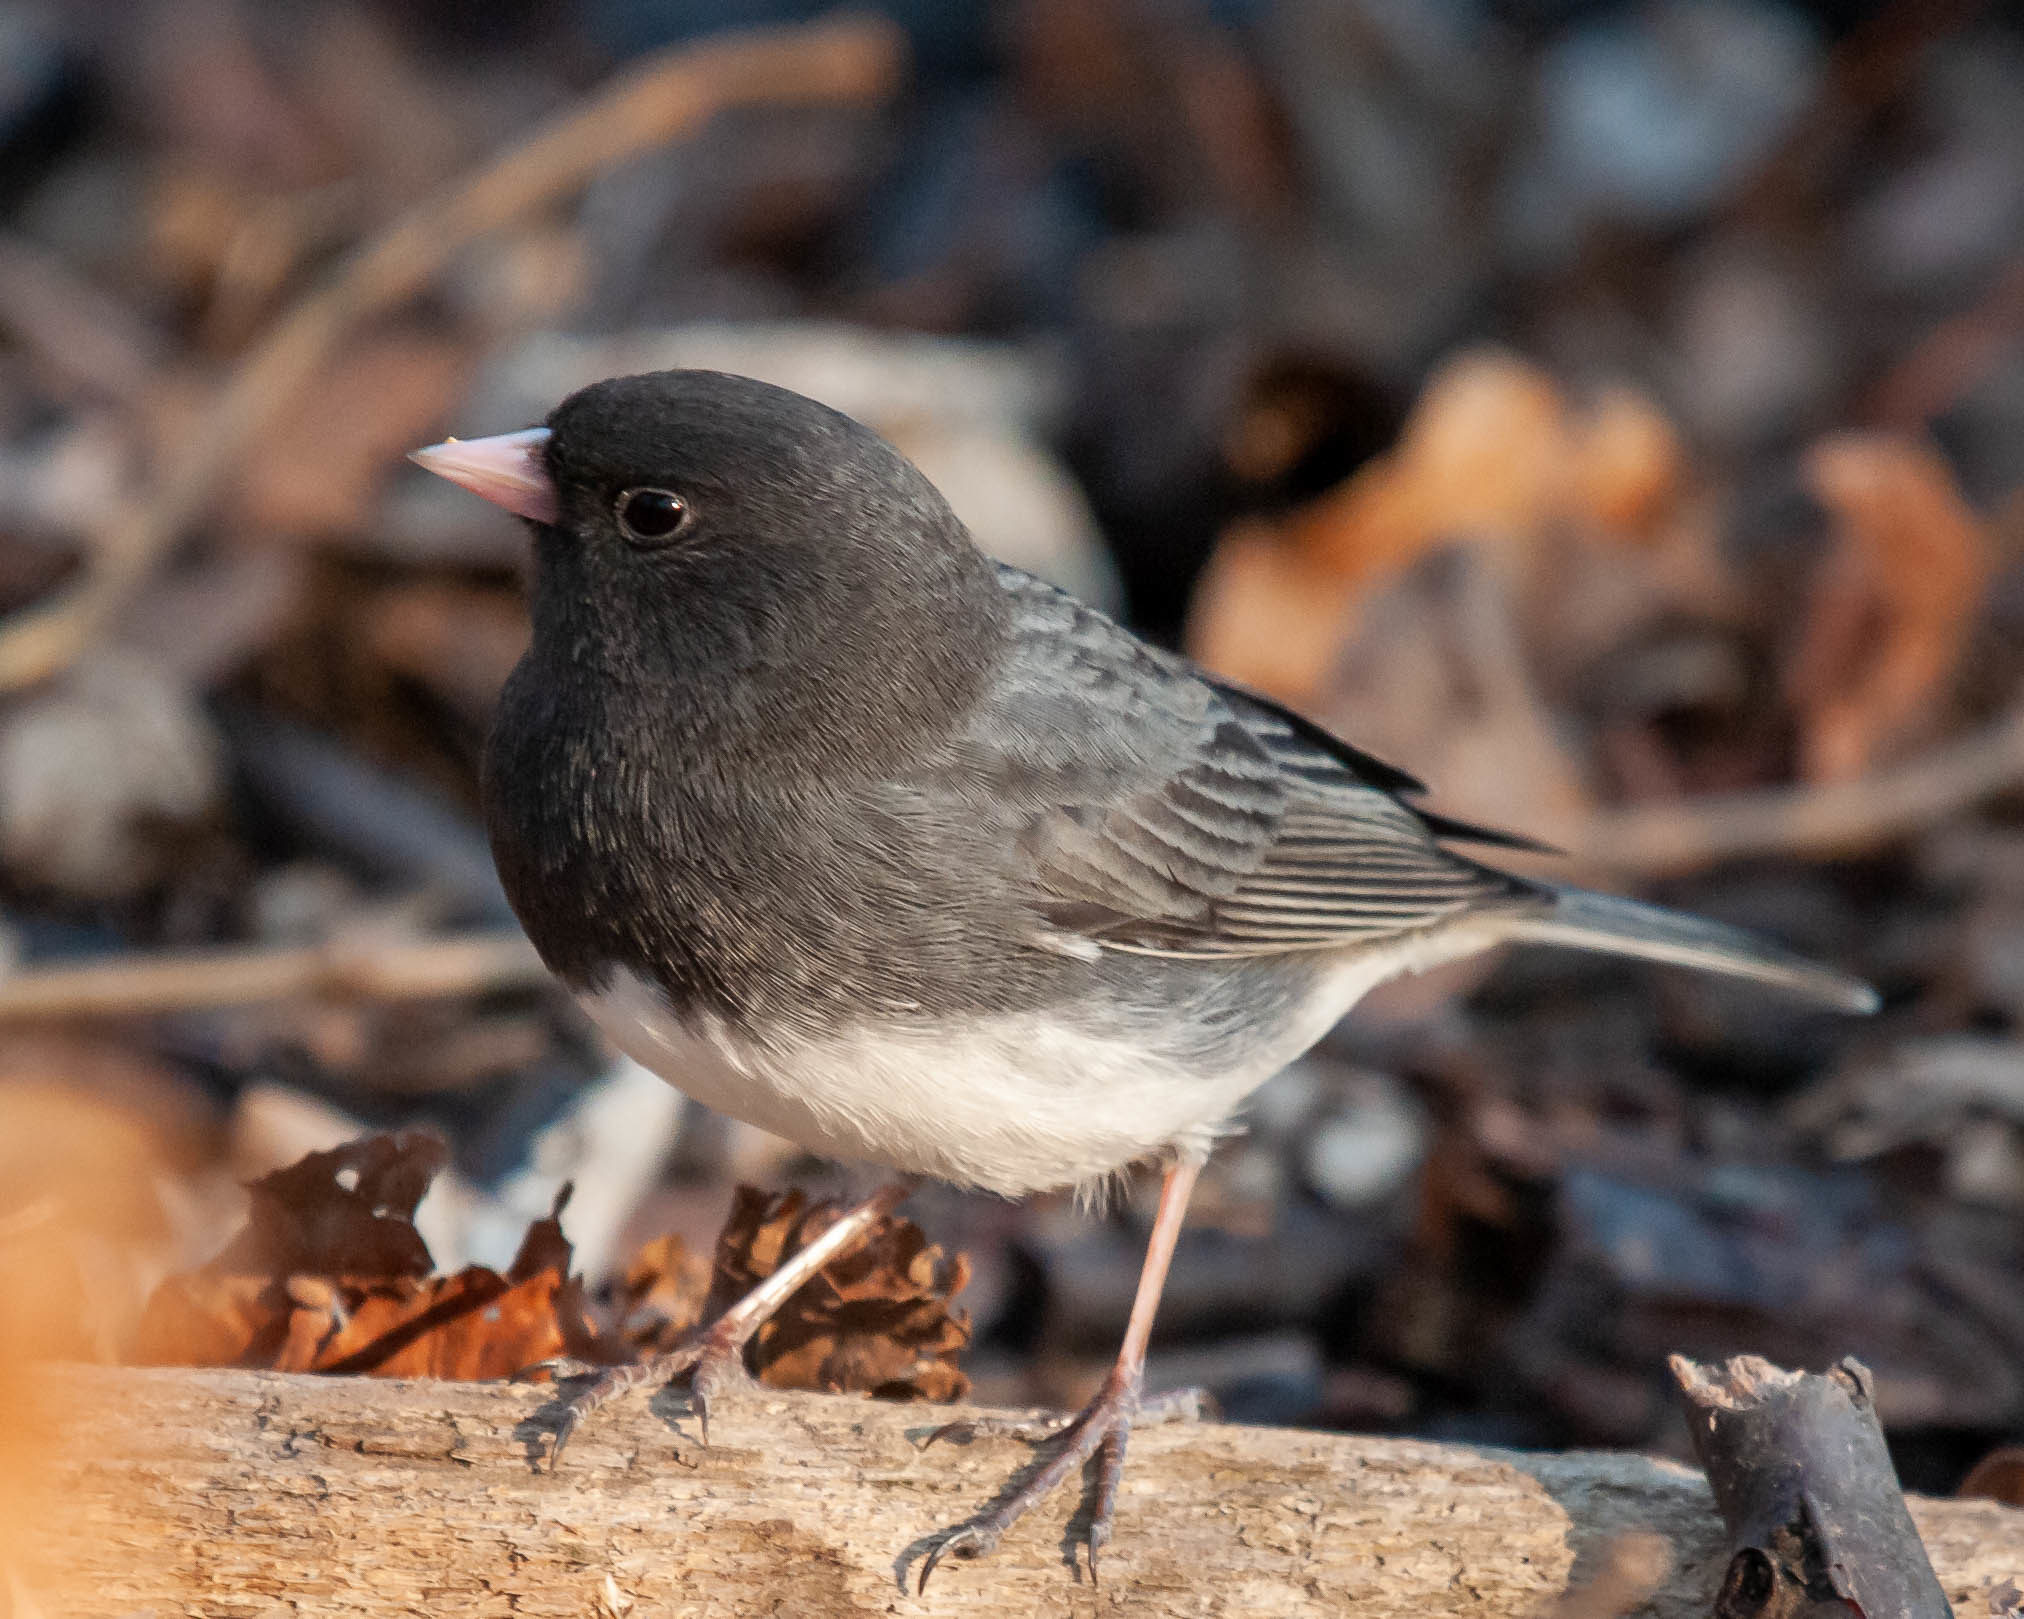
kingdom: Animalia
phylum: Chordata
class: Aves
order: Passeriformes
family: Passerellidae
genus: Junco
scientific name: Junco hyemalis
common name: Dark-eyed junco
